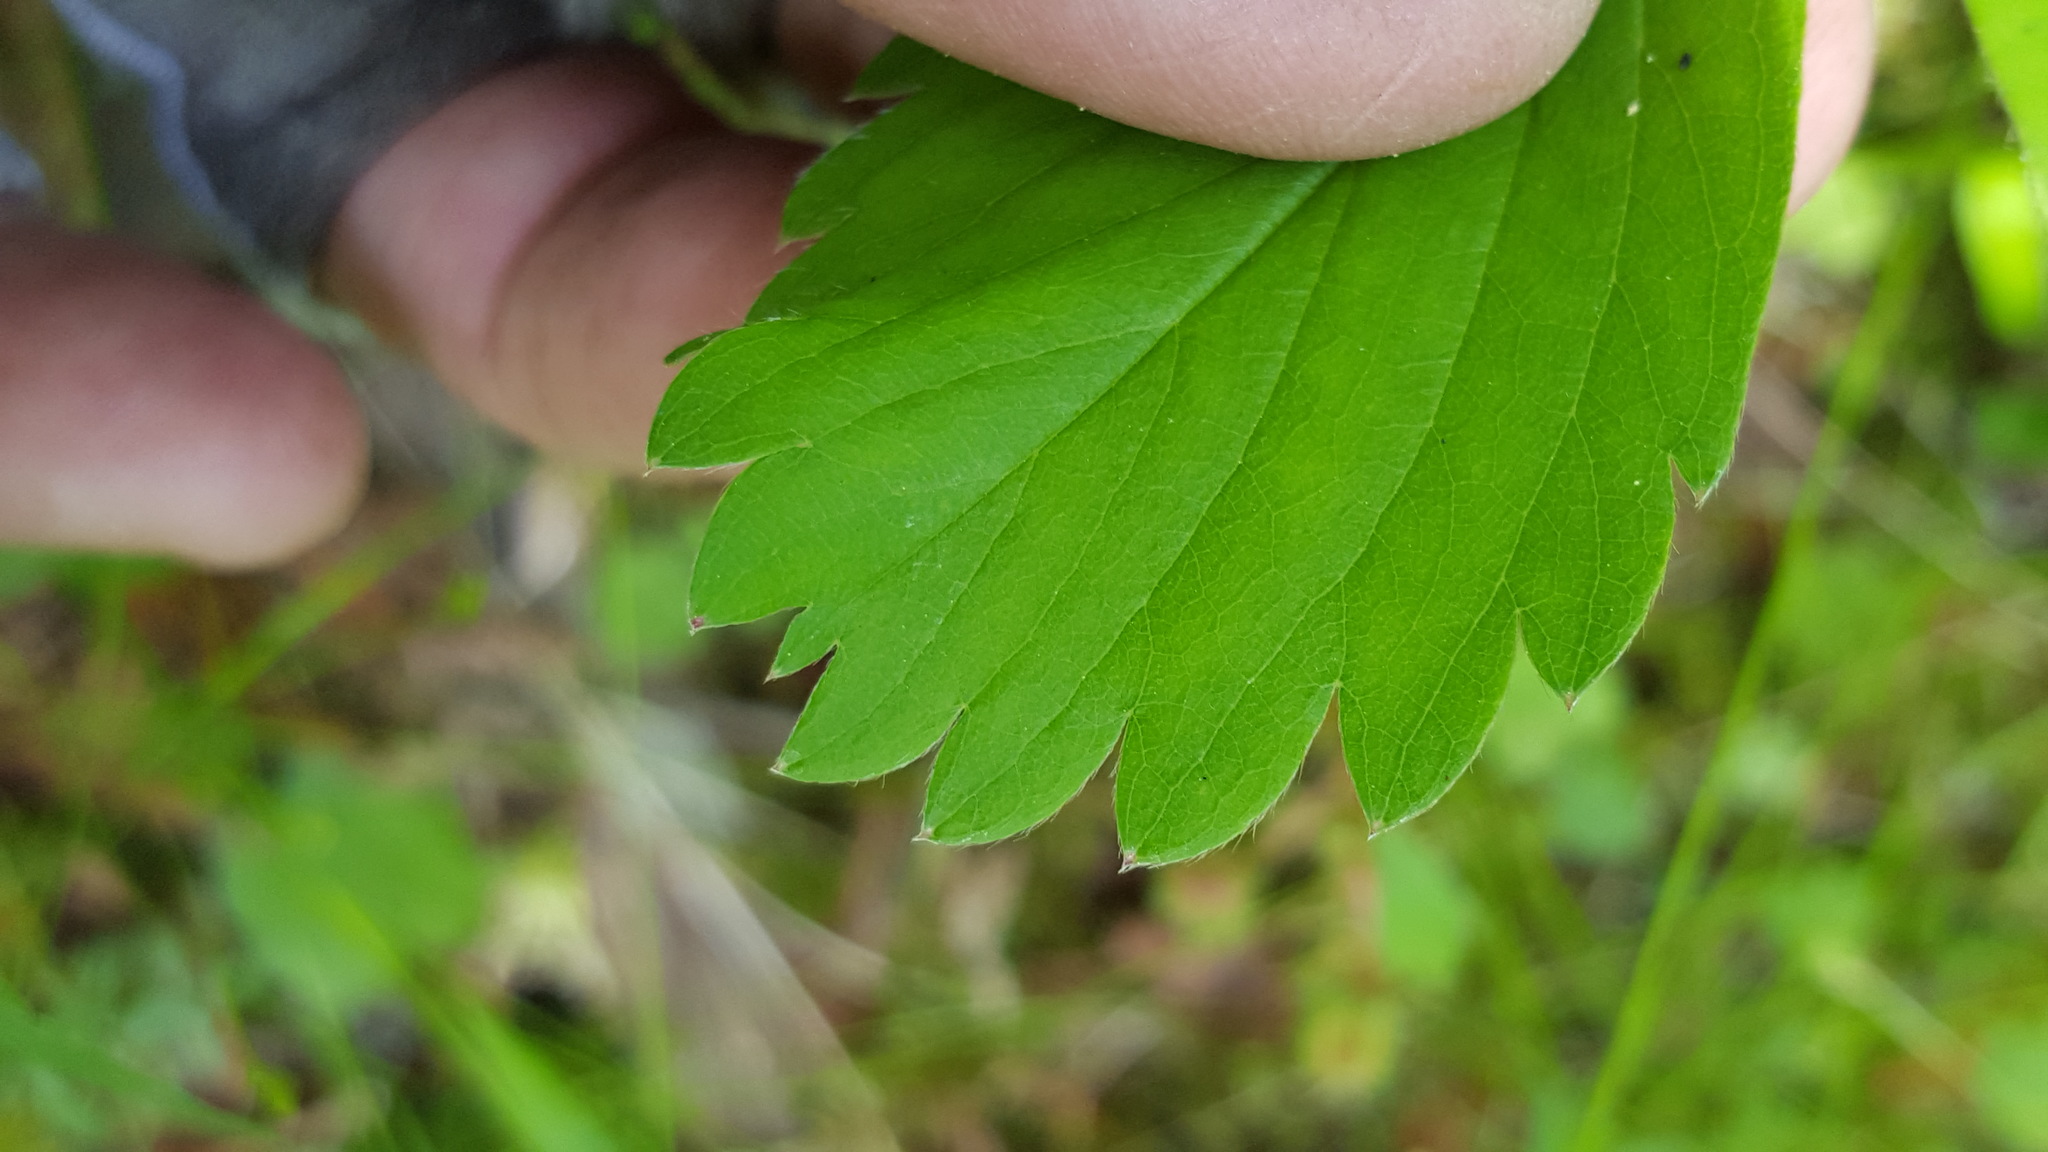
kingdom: Plantae
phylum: Tracheophyta
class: Magnoliopsida
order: Rosales
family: Rosaceae
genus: Fragaria
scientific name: Fragaria virginiana
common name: Thickleaved wild strawberry
